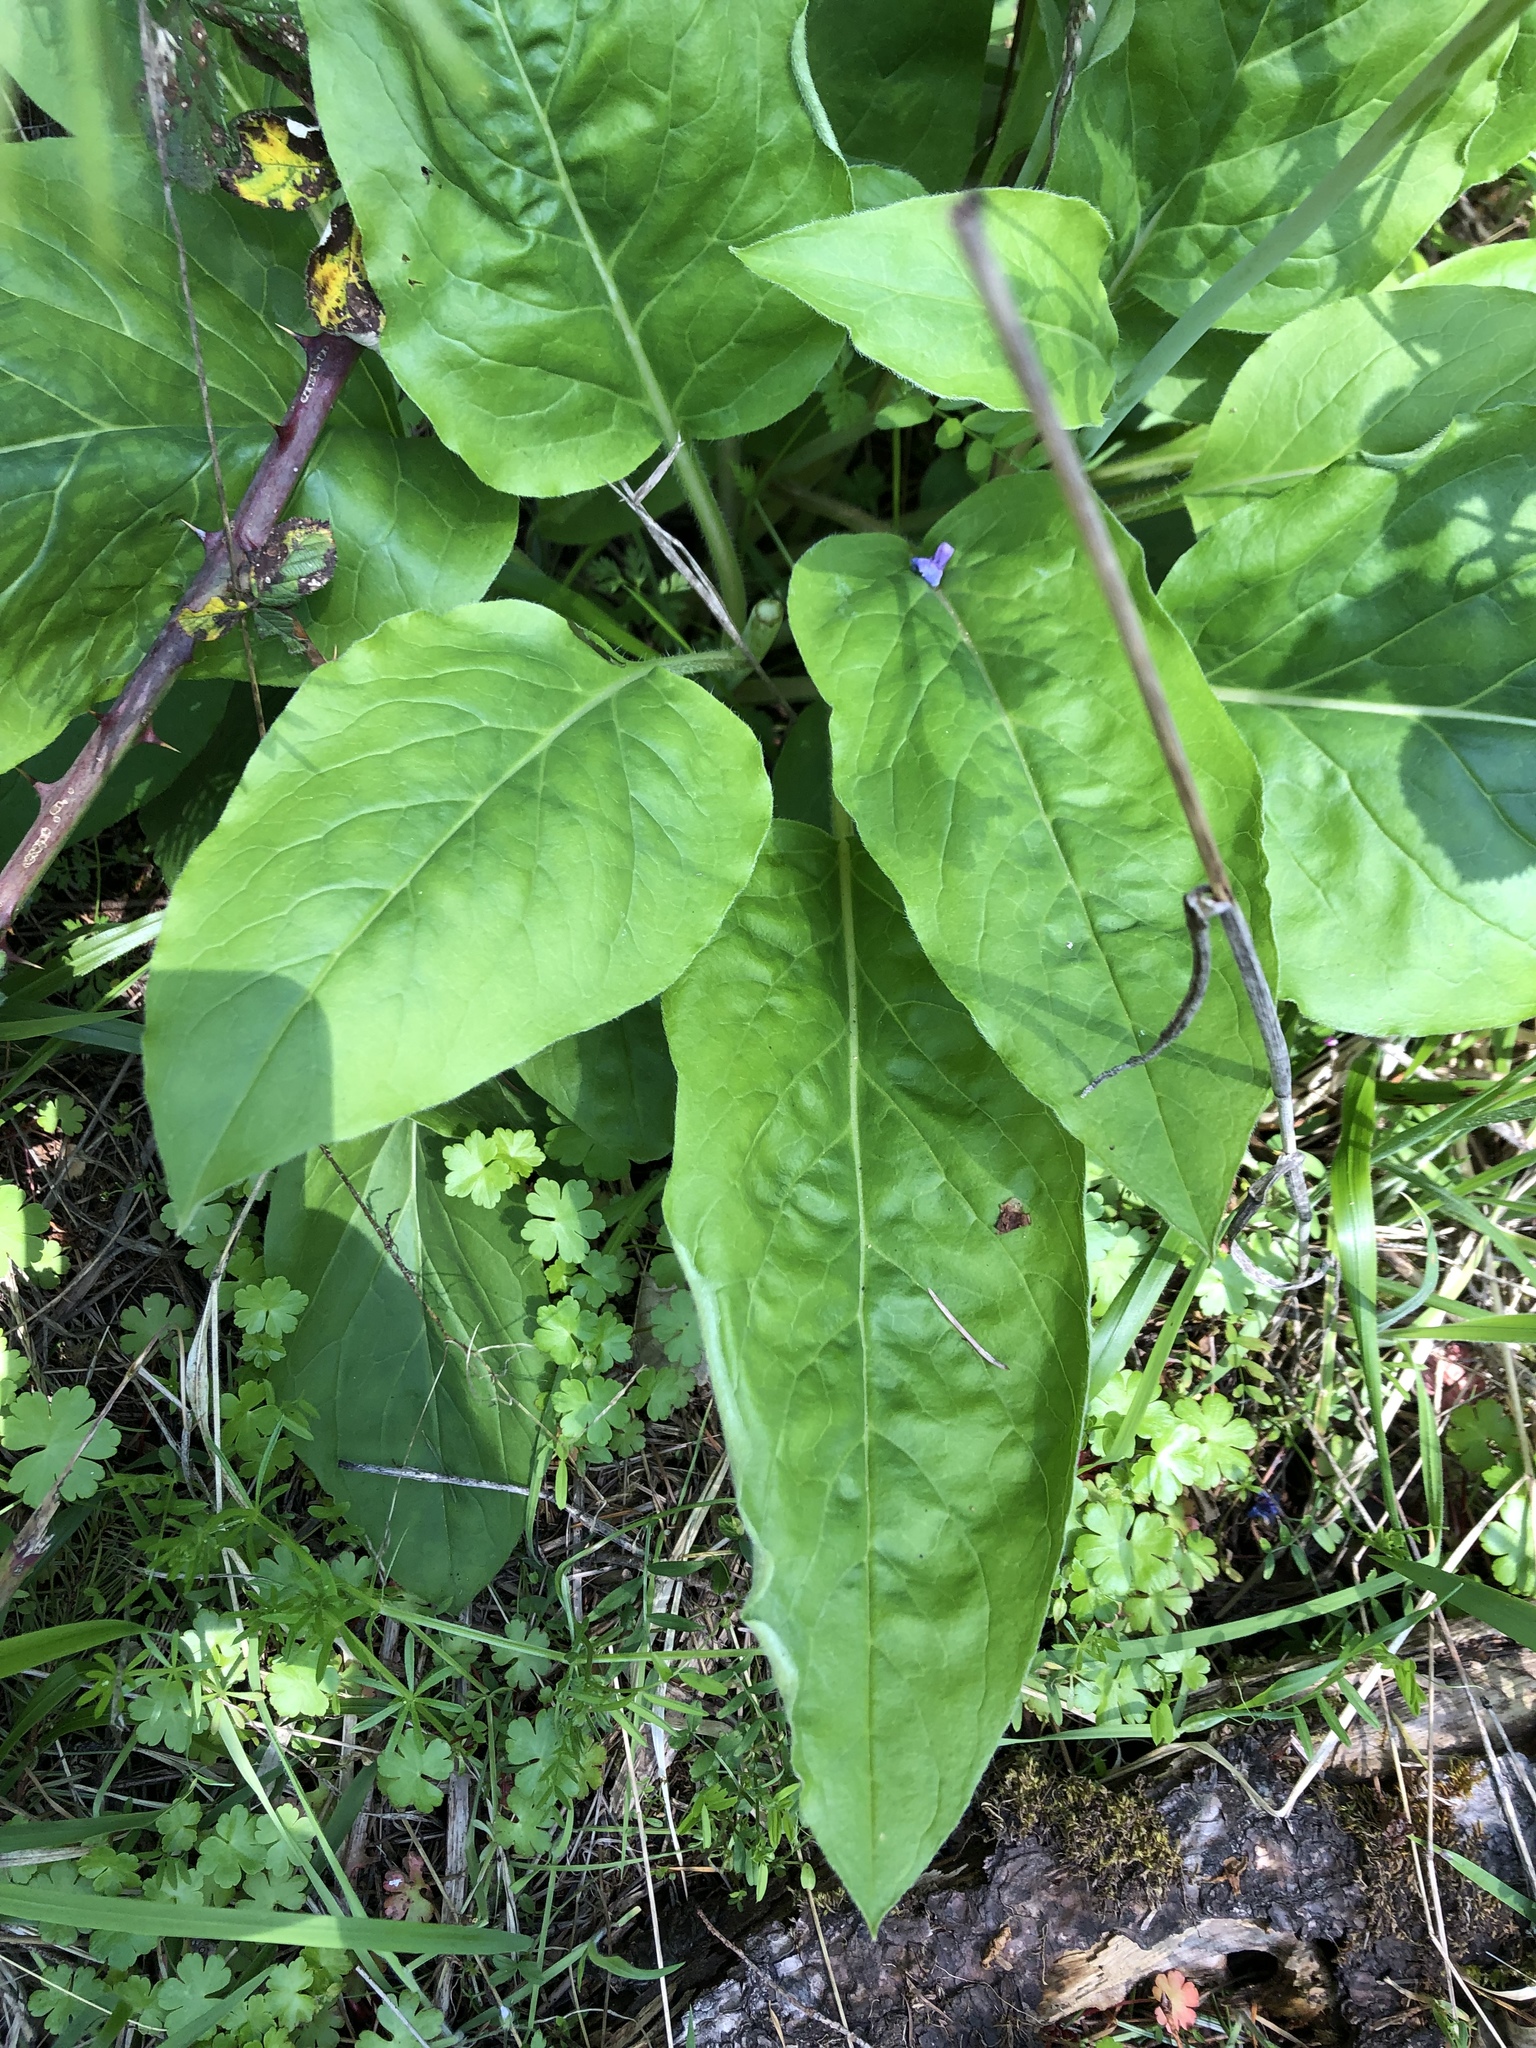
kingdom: Plantae
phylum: Tracheophyta
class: Magnoliopsida
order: Boraginales
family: Boraginaceae
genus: Adelinia
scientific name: Adelinia grande
